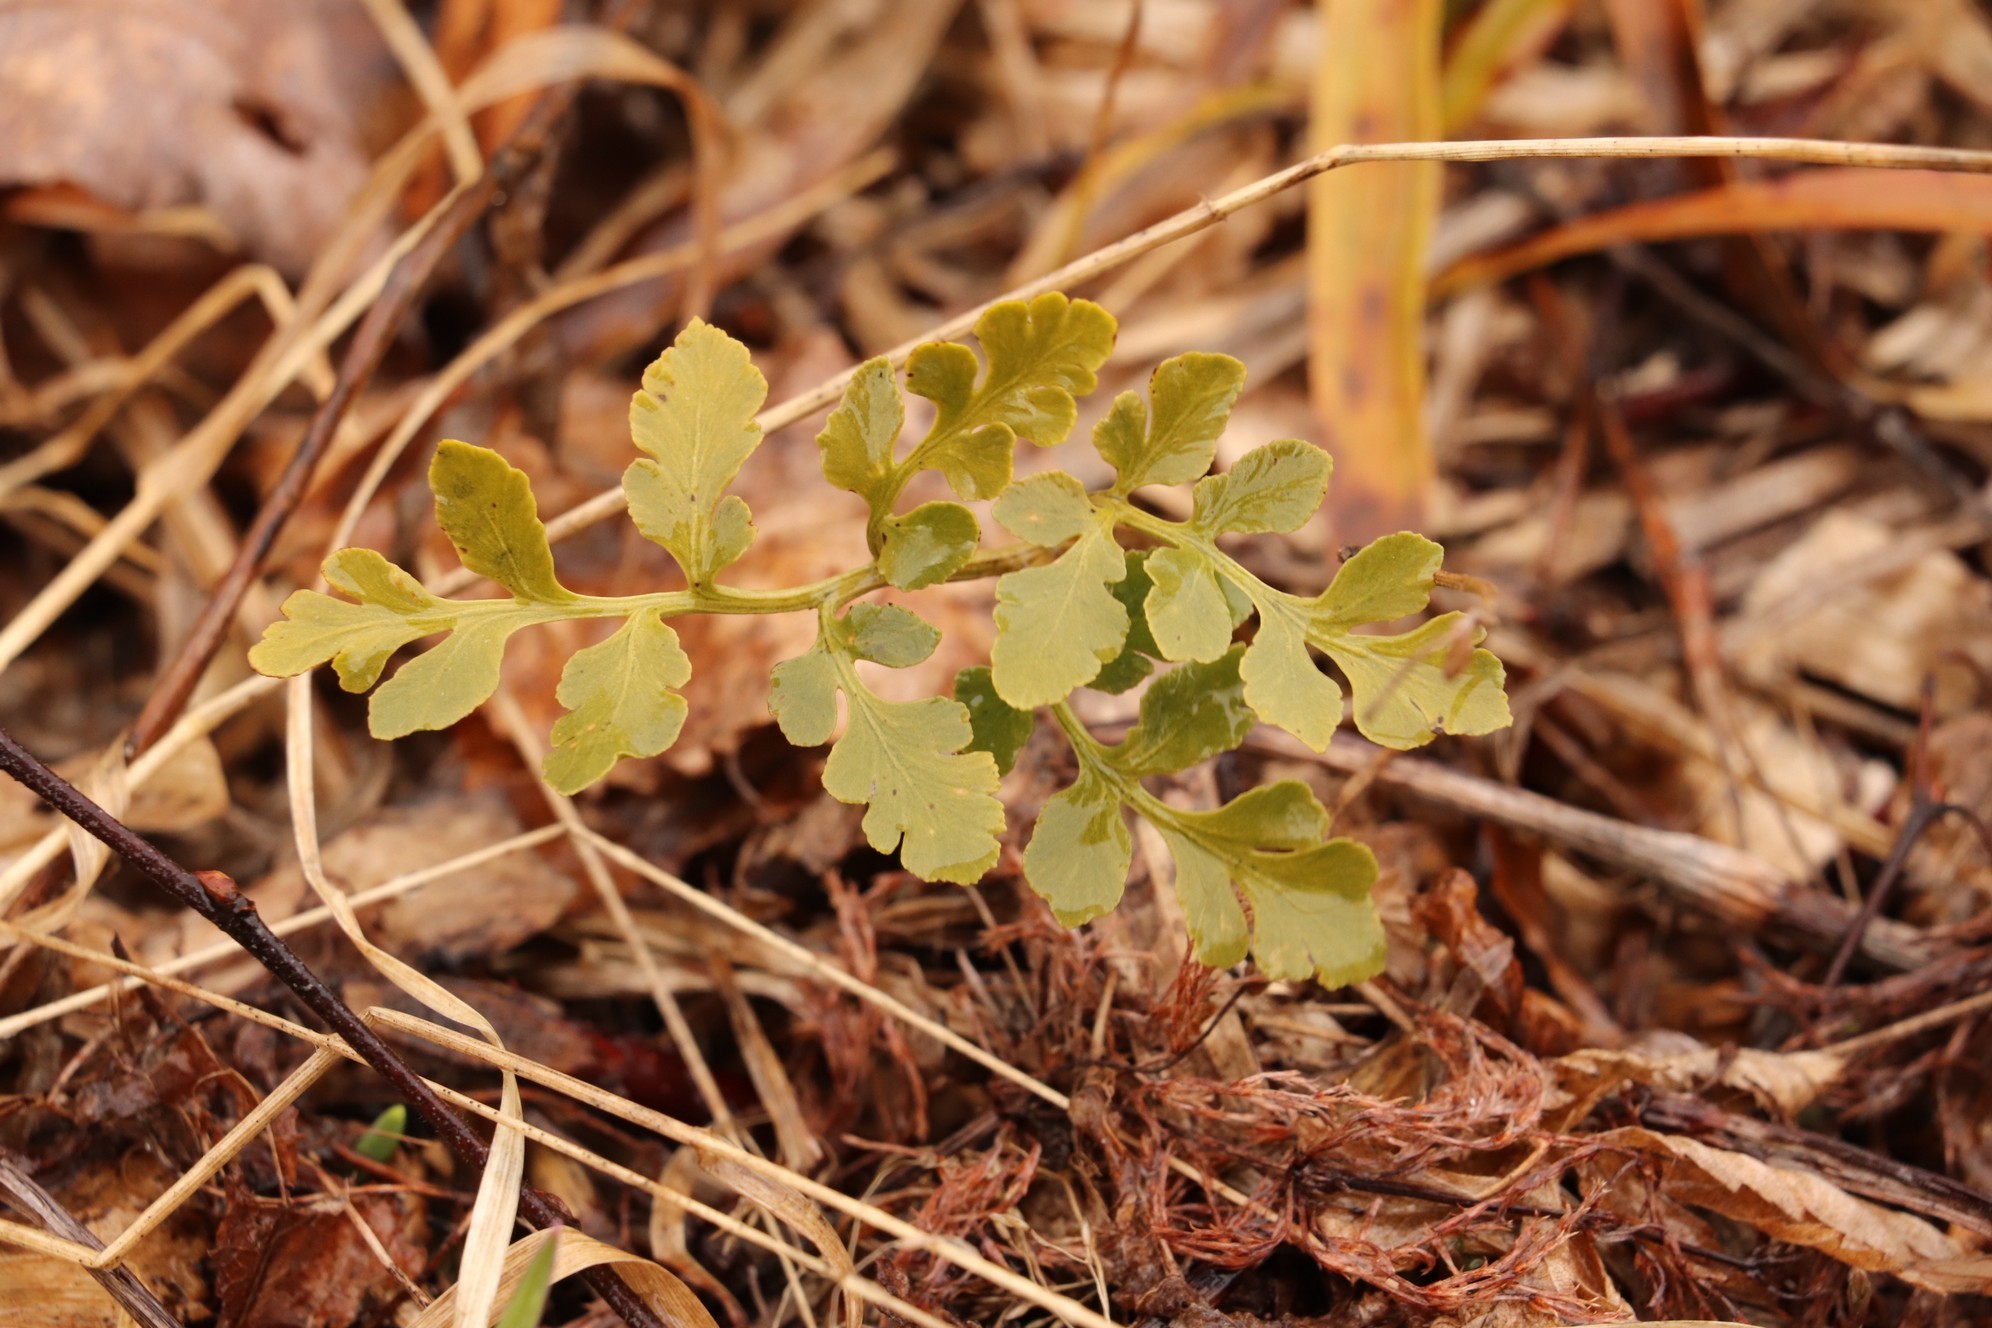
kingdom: Plantae
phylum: Tracheophyta
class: Polypodiopsida
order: Ophioglossales
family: Ophioglossaceae
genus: Sceptridium
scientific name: Sceptridium multifidum
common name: Leathery grape fern
